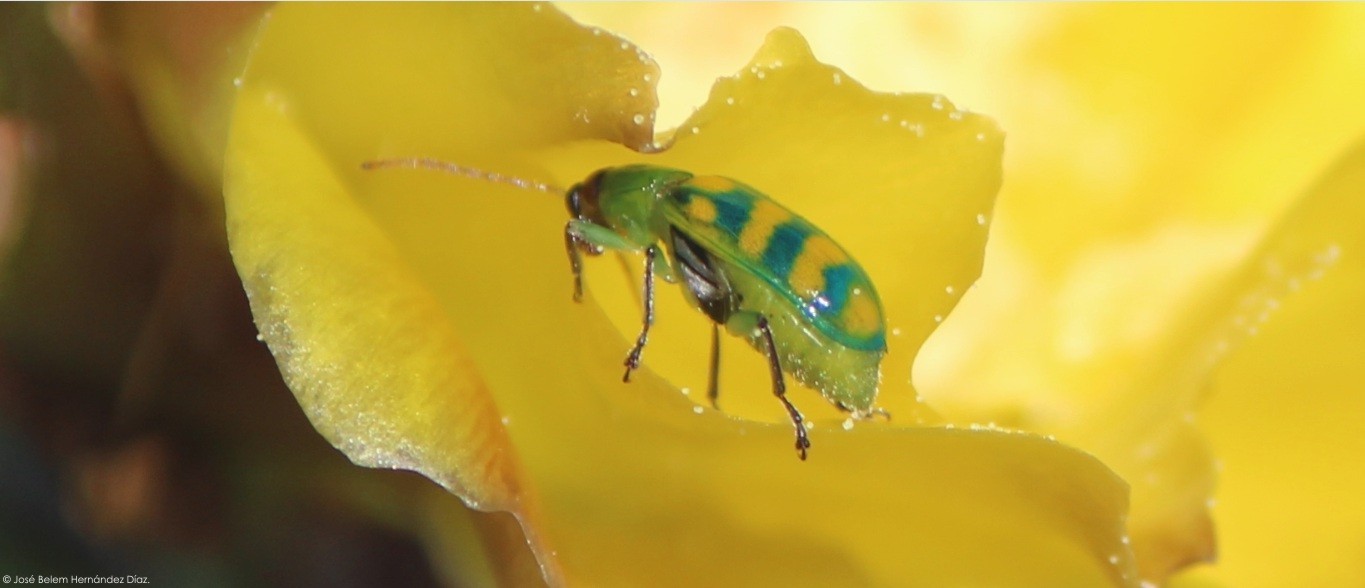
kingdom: Animalia
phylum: Arthropoda
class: Insecta
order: Coleoptera
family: Chrysomelidae
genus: Diabrotica
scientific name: Diabrotica balteata
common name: Leaf beetle
